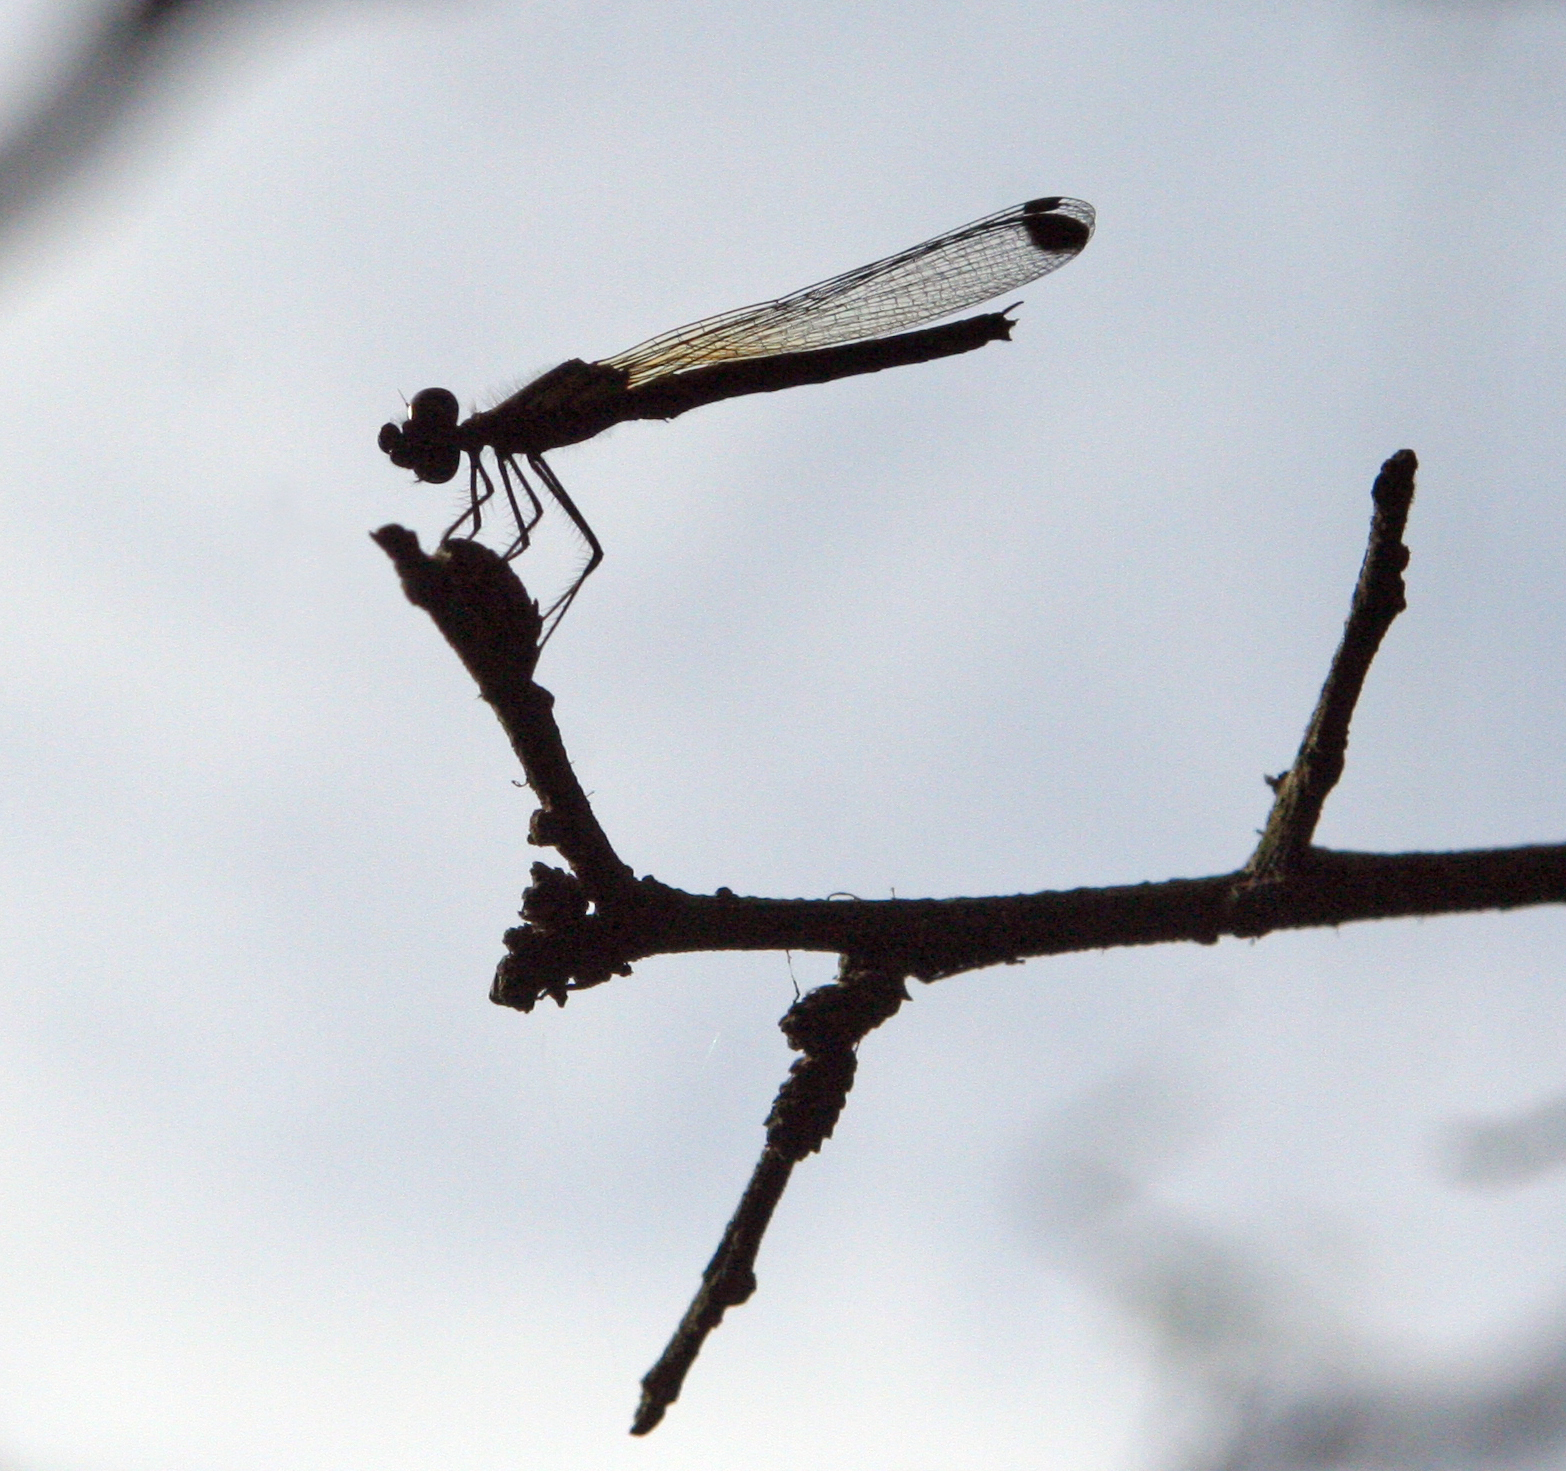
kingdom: Animalia
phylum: Arthropoda
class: Insecta
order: Odonata
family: Chlorocyphidae
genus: Libellago
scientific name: Libellago lineata
